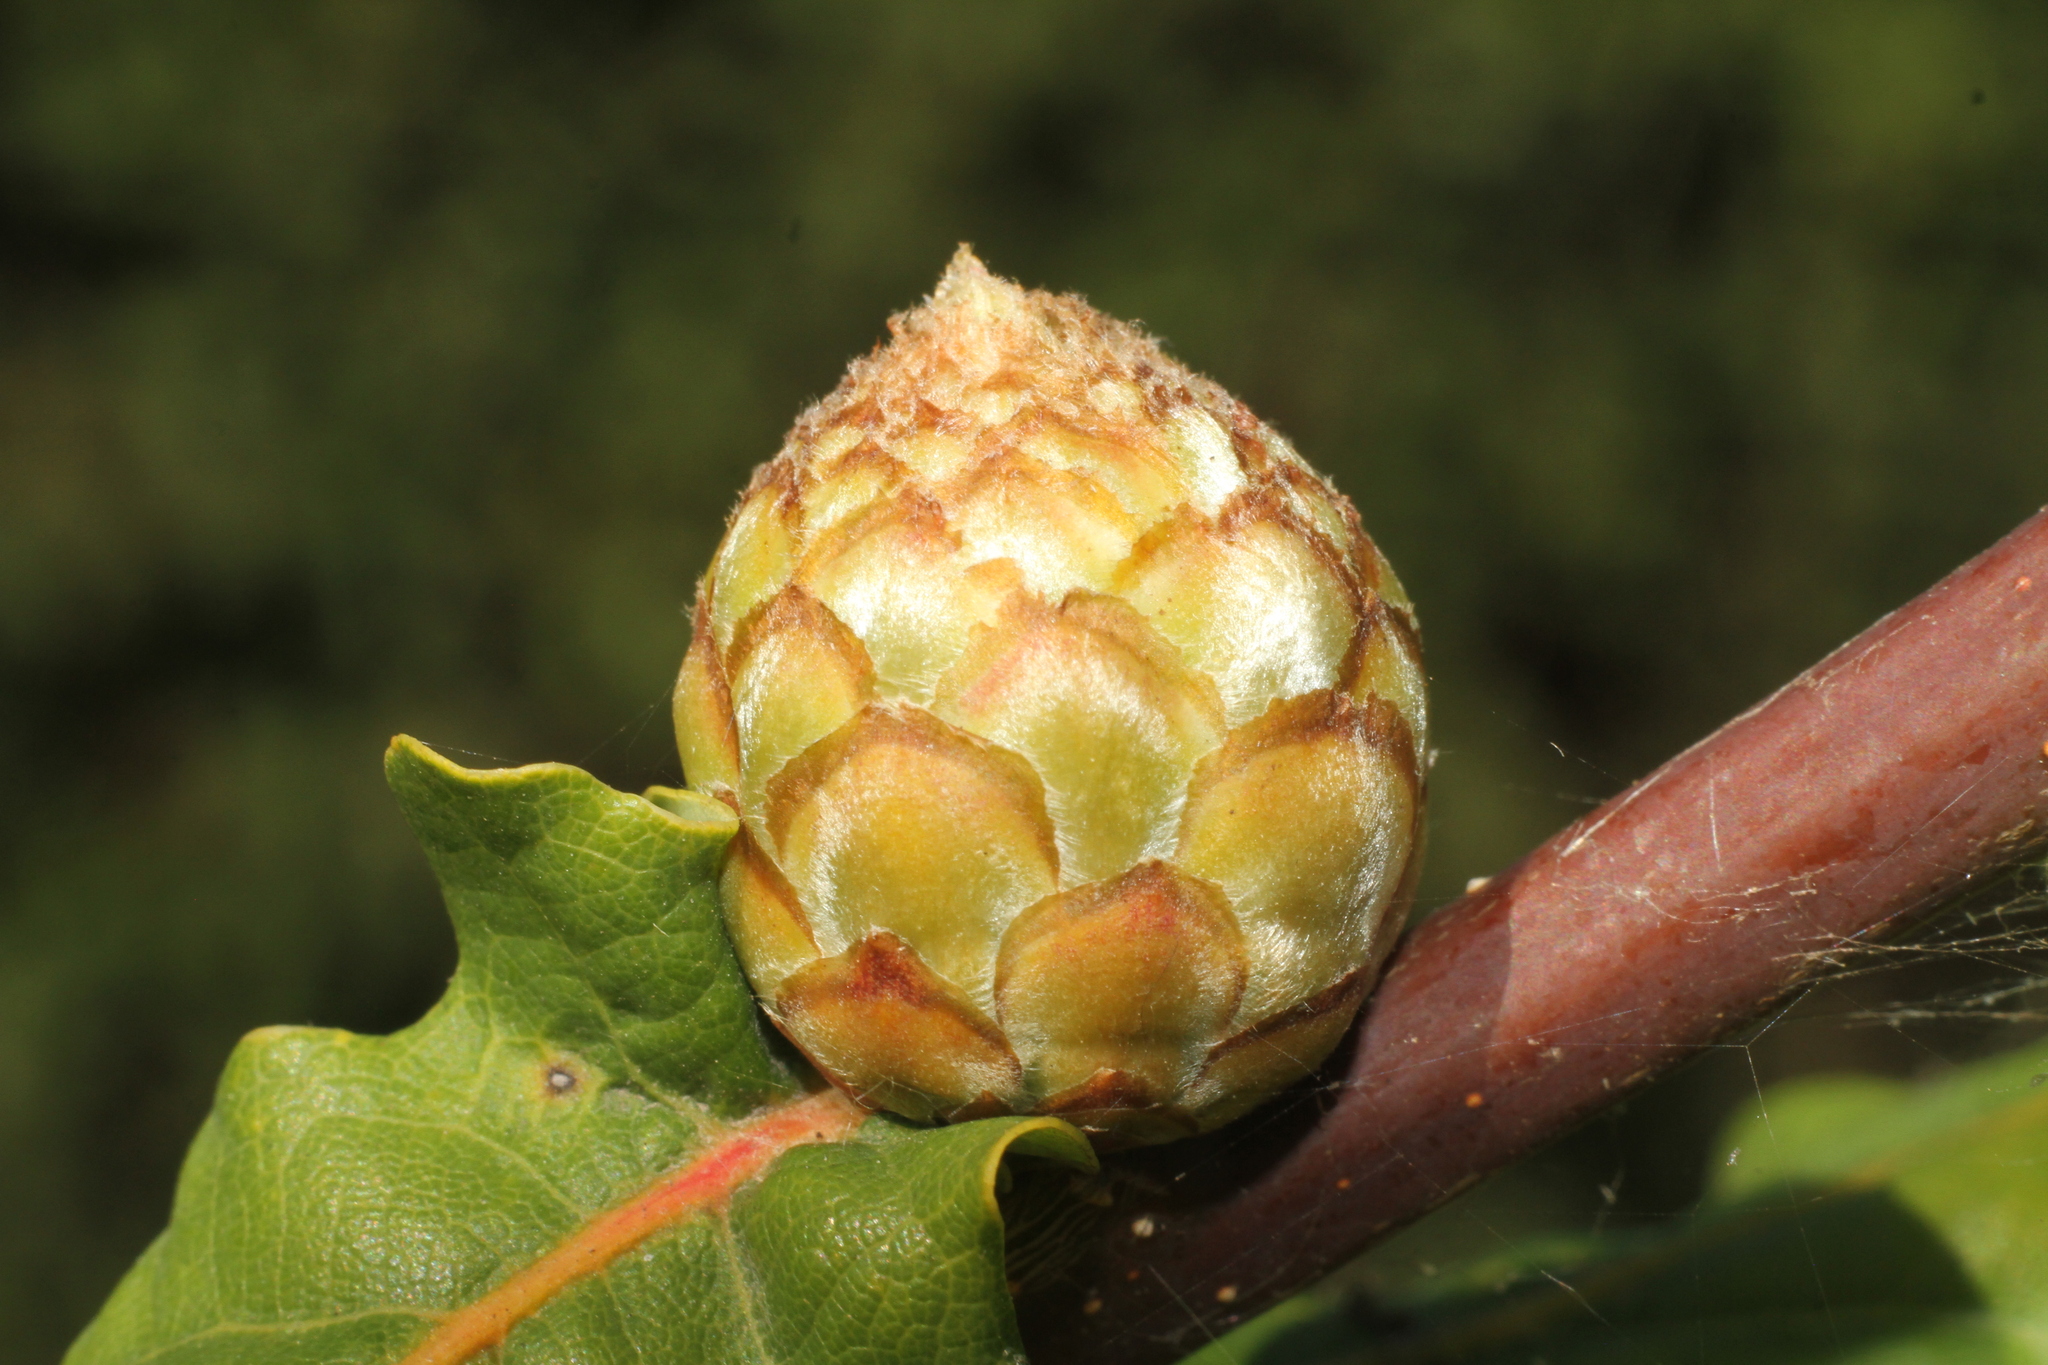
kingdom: Animalia
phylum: Arthropoda
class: Insecta
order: Hymenoptera
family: Cynipidae
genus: Andricus
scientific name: Andricus foecundatrix
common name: Artichoke gall
